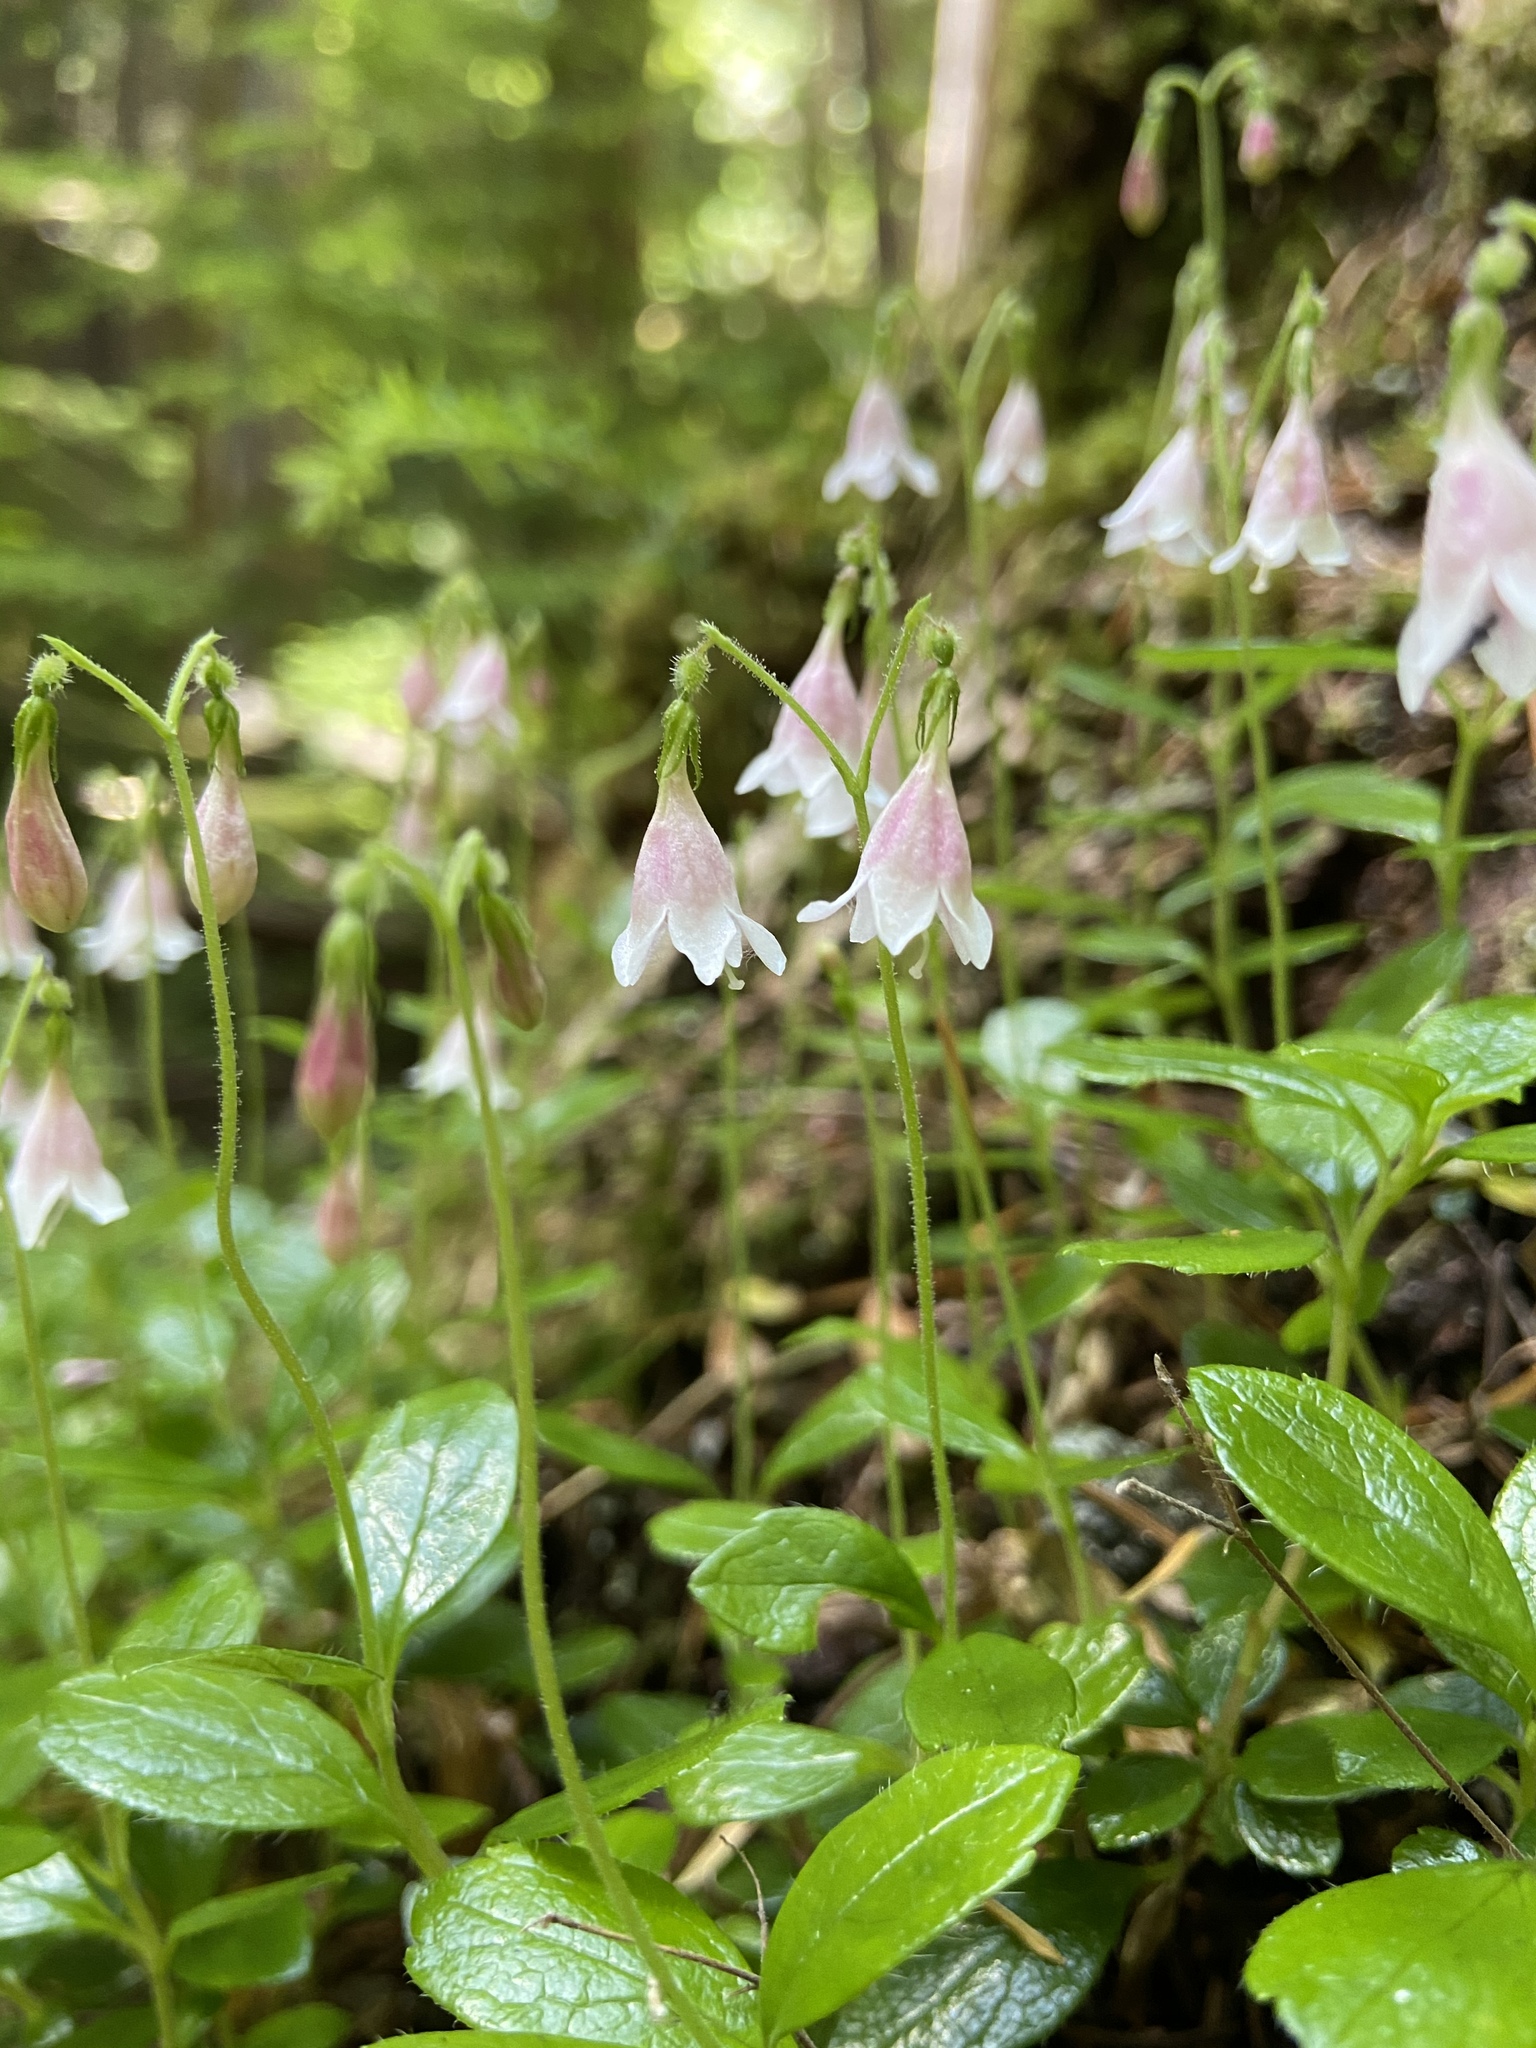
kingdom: Plantae
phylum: Tracheophyta
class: Magnoliopsida
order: Dipsacales
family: Caprifoliaceae
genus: Linnaea
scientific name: Linnaea borealis
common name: Twinflower
